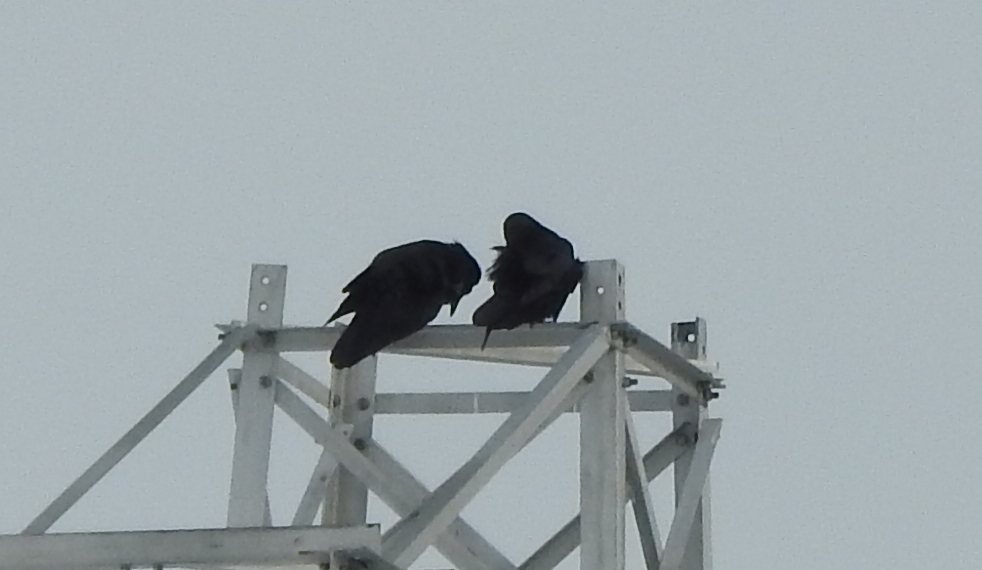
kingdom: Animalia
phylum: Chordata
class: Aves
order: Passeriformes
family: Corvidae
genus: Corvus
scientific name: Corvus corax
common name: Common raven
